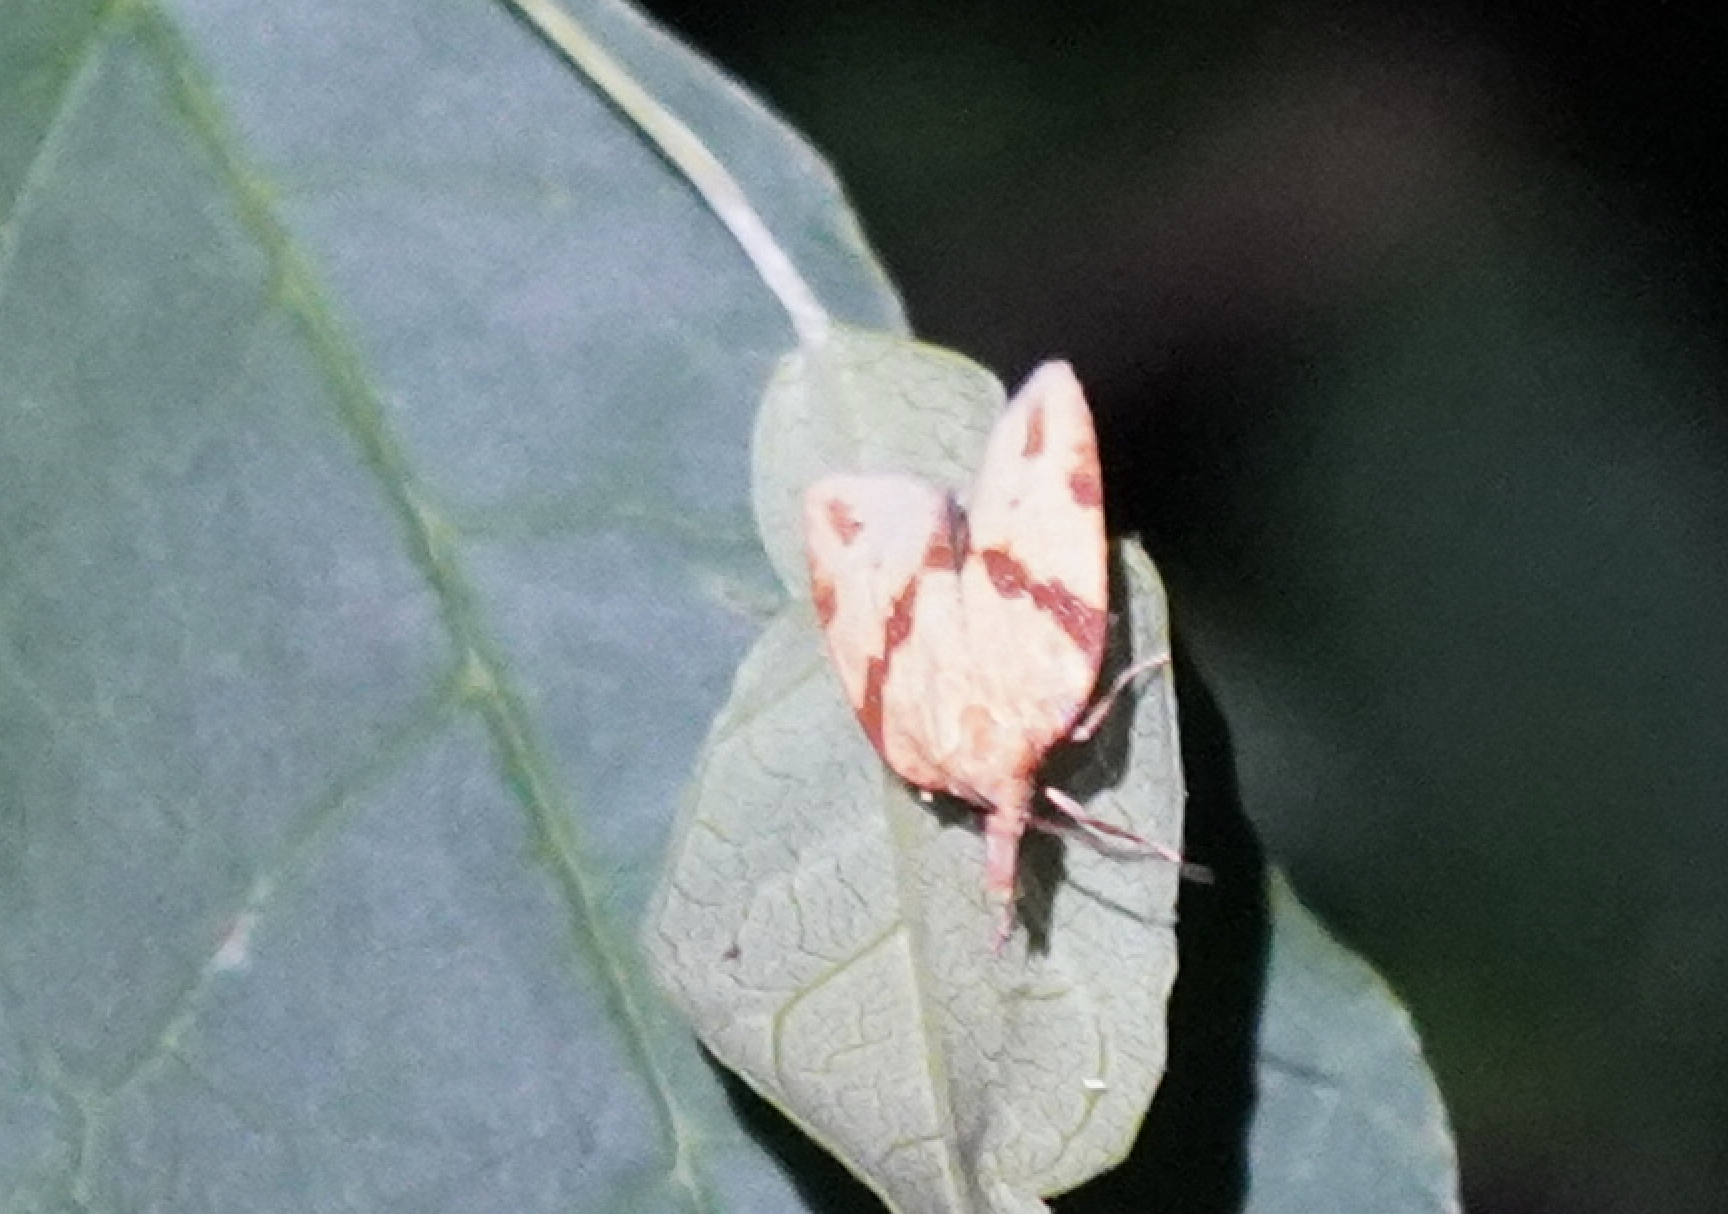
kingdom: Animalia
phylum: Arthropoda
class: Insecta
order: Lepidoptera
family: Tortricidae
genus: Sparganothis
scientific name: Sparganothis unifasciana
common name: One-lined sparganothis moth
